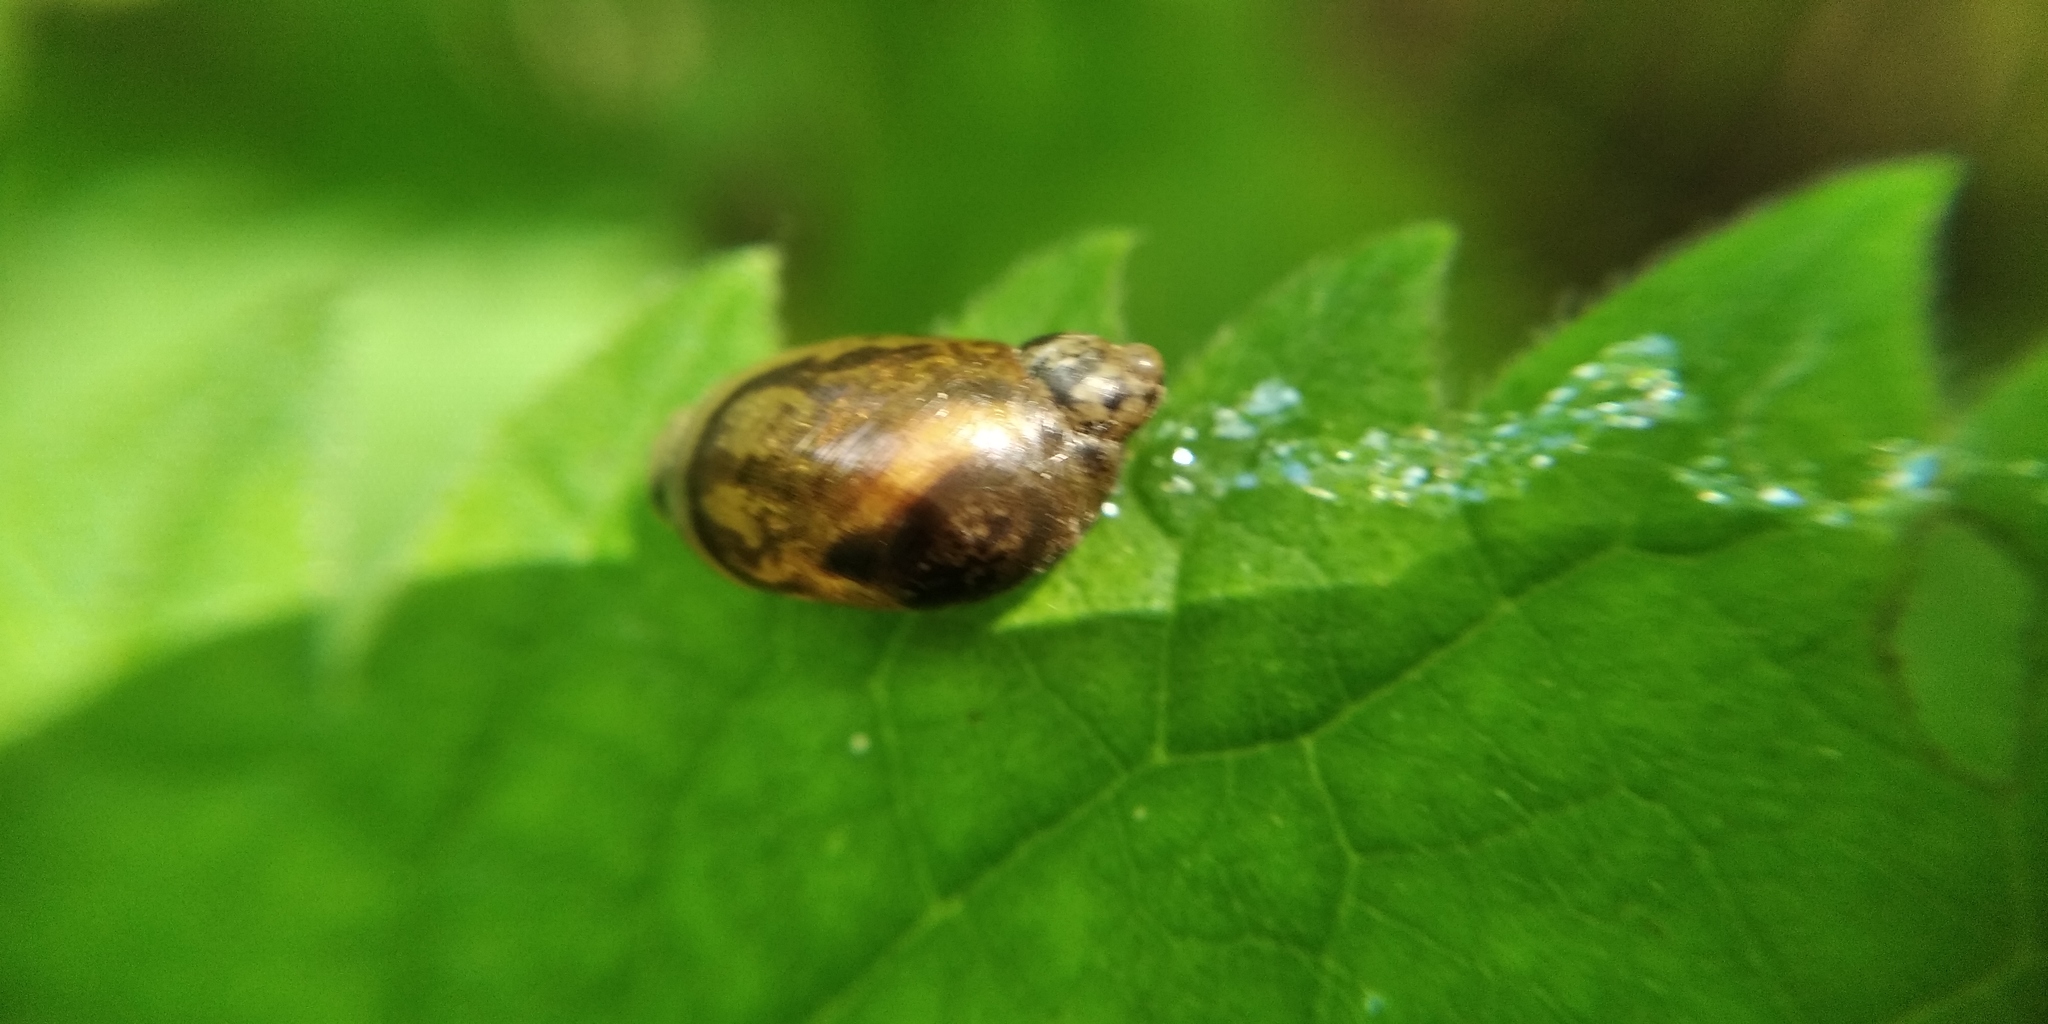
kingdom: Animalia
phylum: Mollusca
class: Gastropoda
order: Stylommatophora
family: Succineidae
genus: Succinea
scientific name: Succinea putris
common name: European ambersnail
